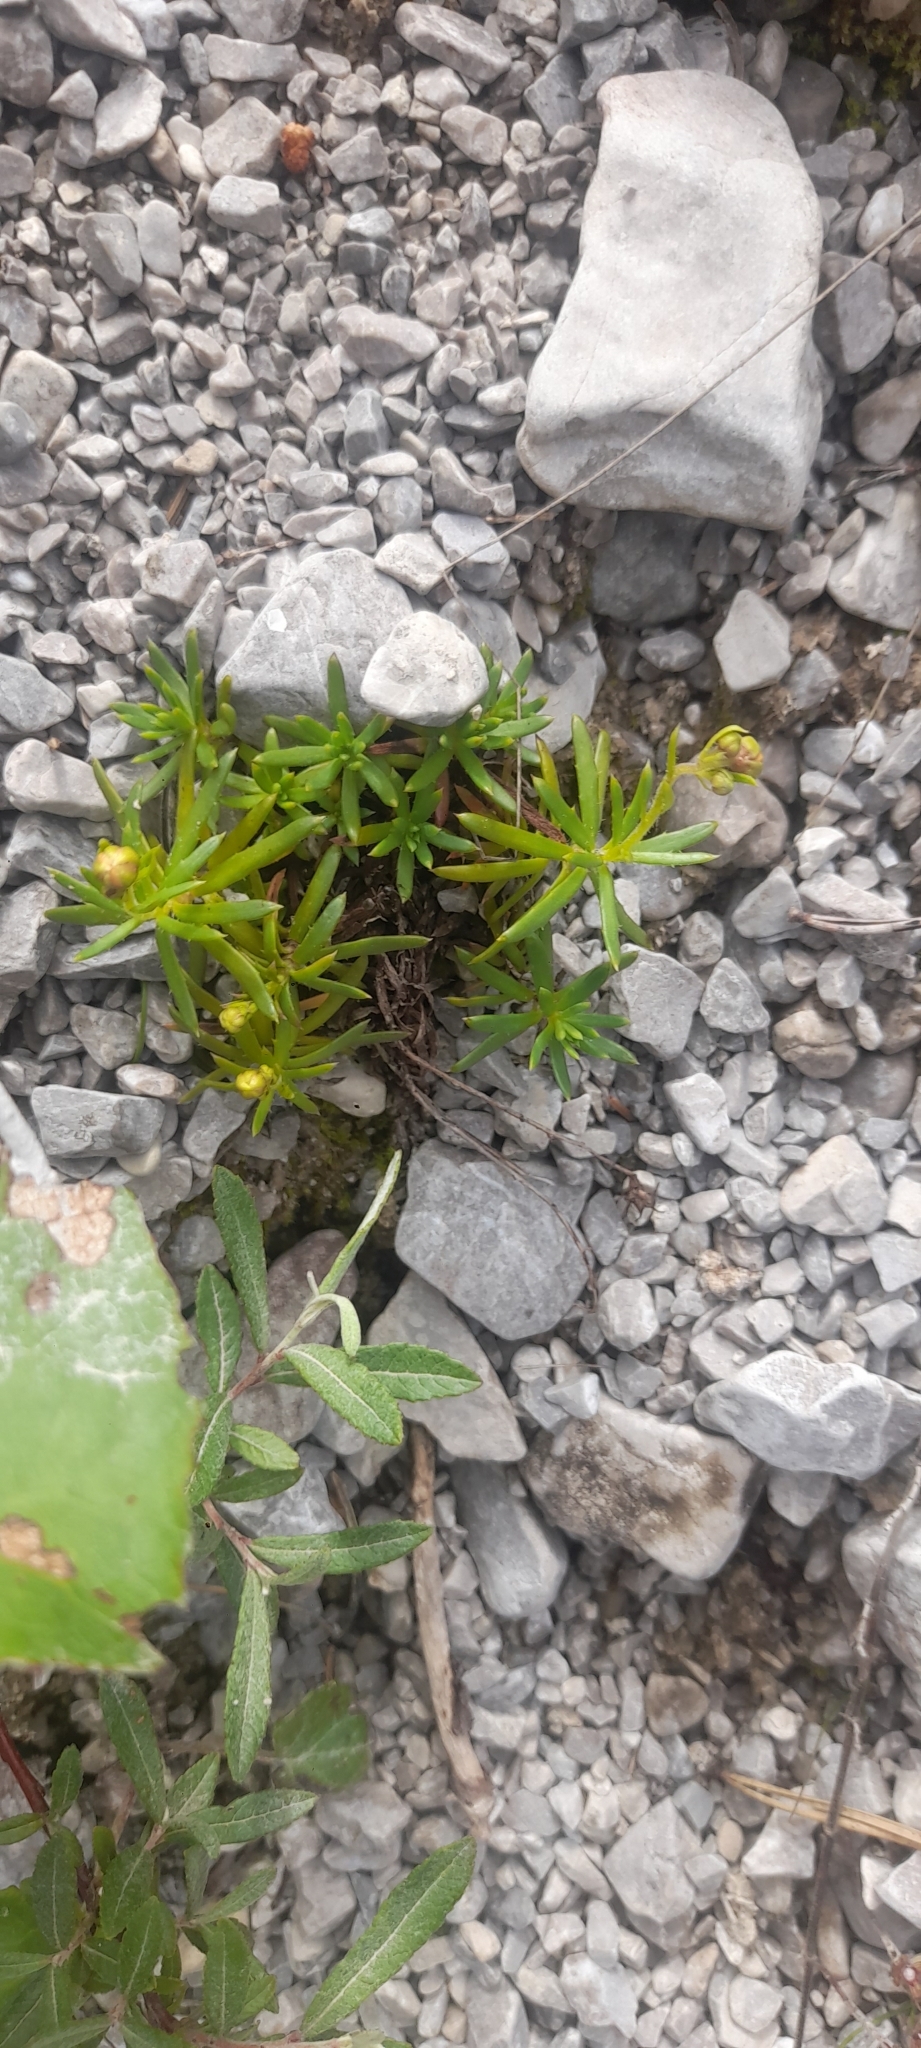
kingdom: Plantae
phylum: Tracheophyta
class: Magnoliopsida
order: Saxifragales
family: Saxifragaceae
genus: Saxifraga
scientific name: Saxifraga aizoides
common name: Yellow mountain saxifrage
